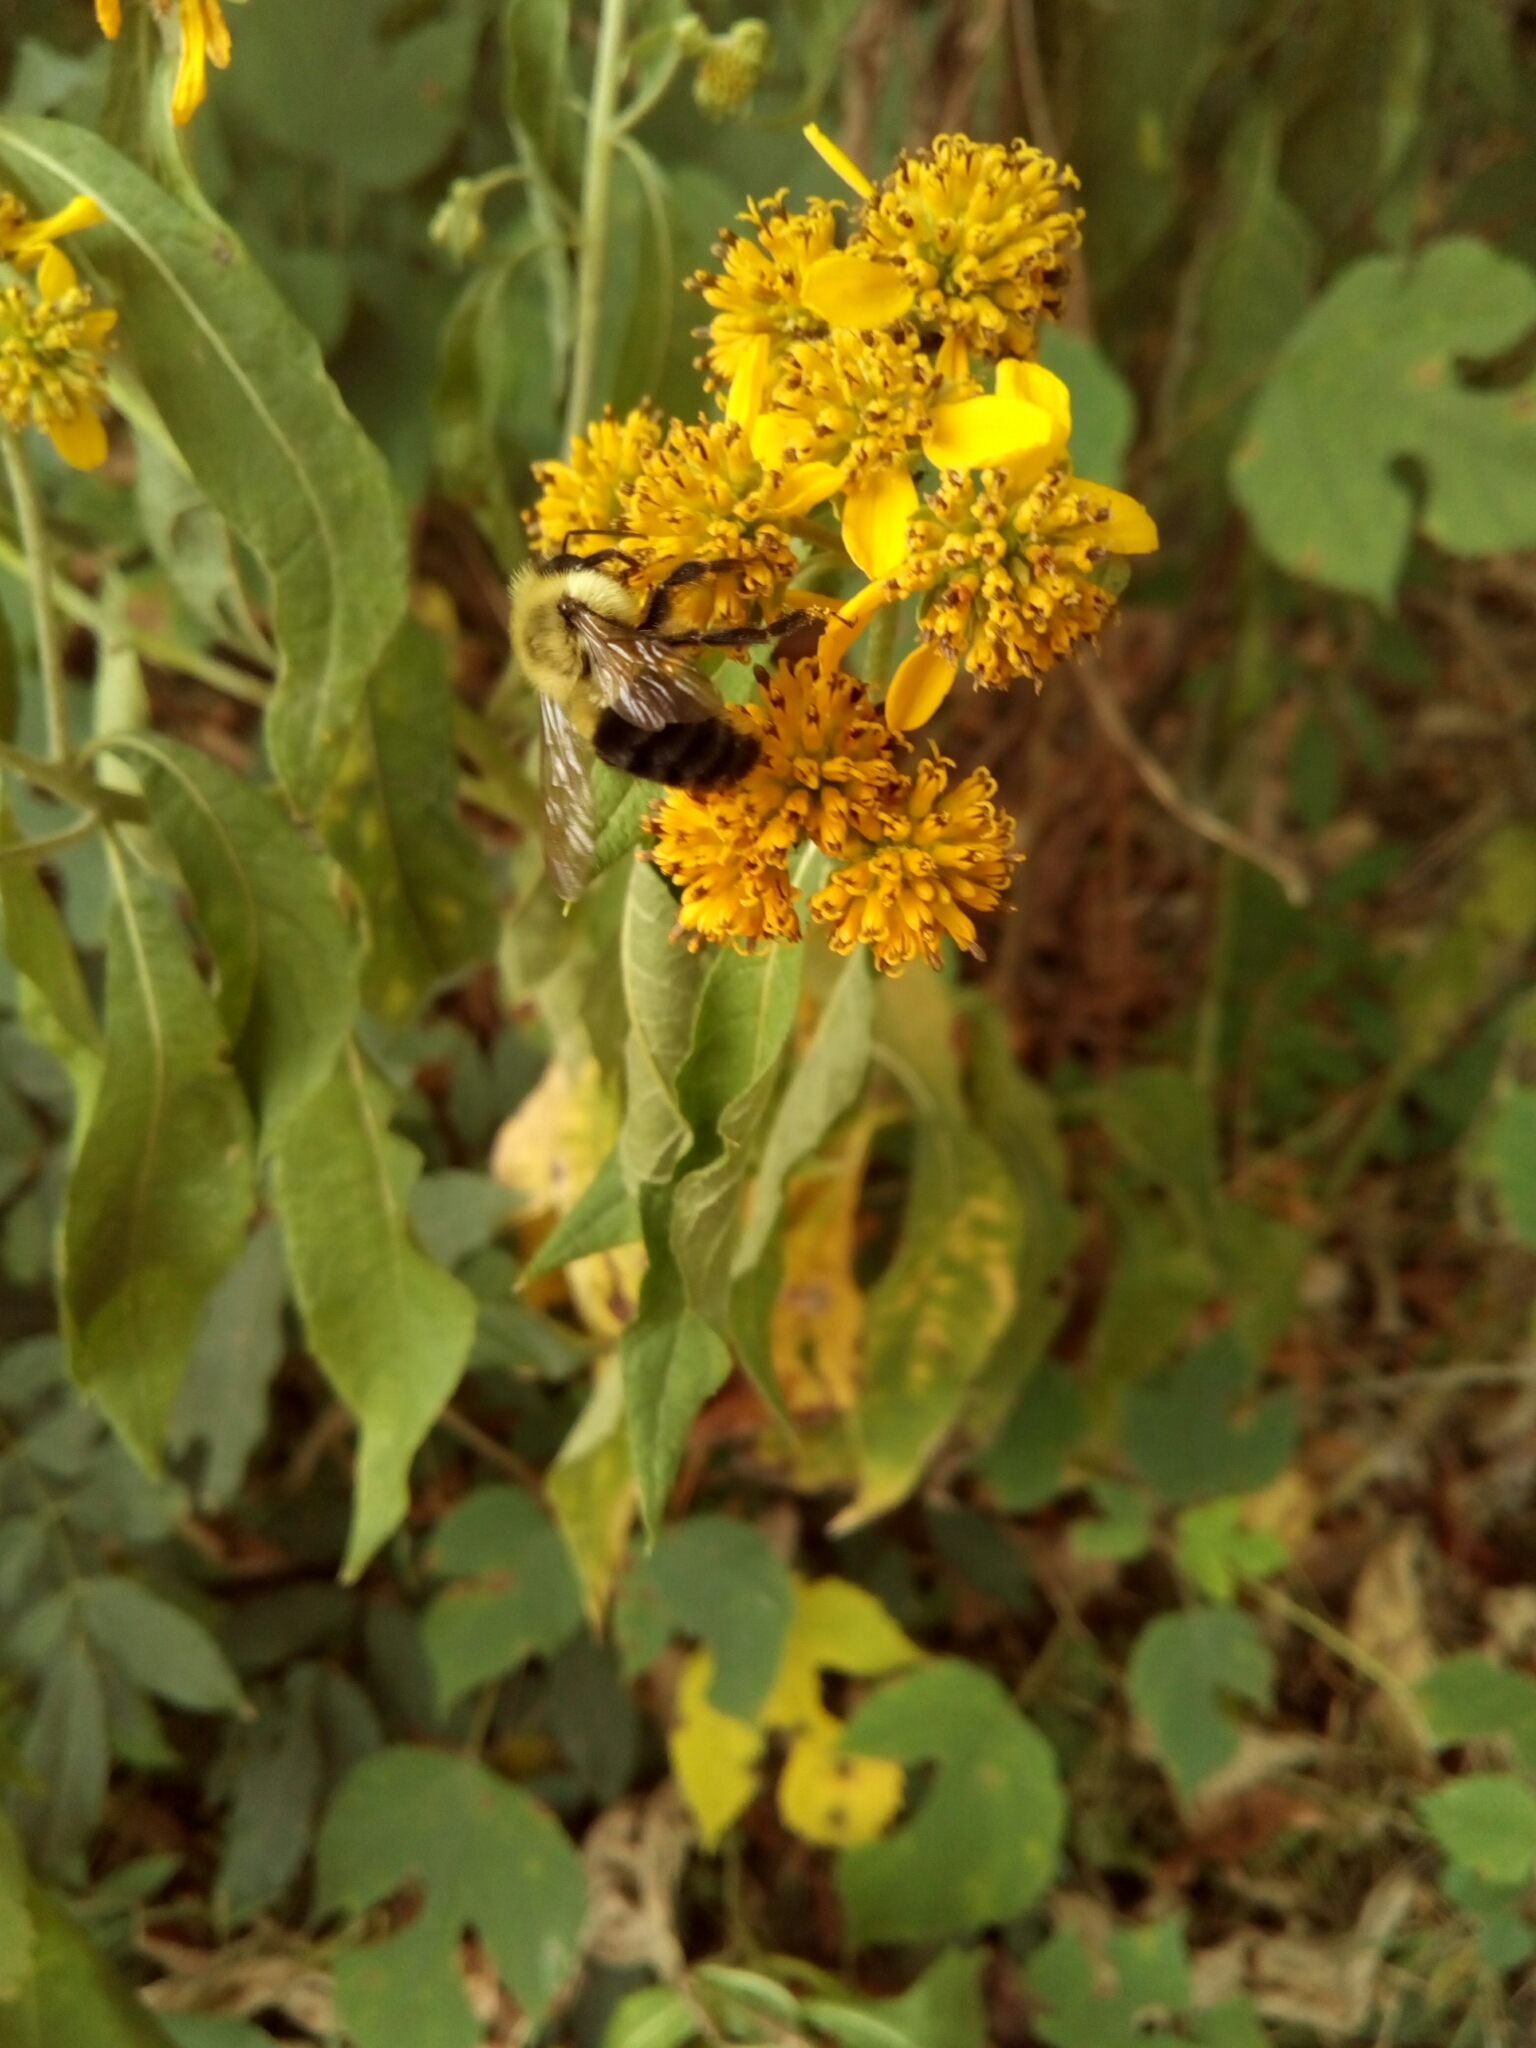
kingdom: Animalia
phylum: Arthropoda
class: Insecta
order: Hymenoptera
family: Apidae
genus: Bombus
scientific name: Bombus impatiens
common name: Common eastern bumble bee
